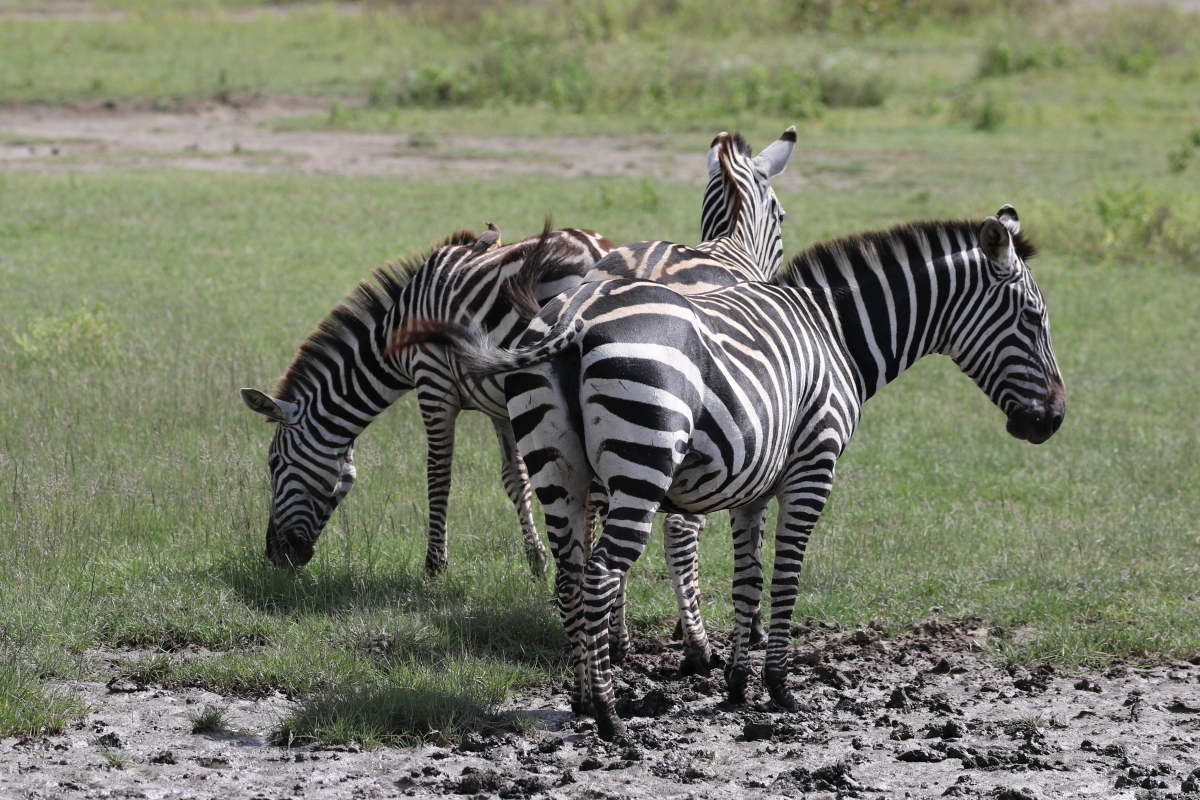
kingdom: Animalia
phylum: Chordata
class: Mammalia
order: Perissodactyla
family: Equidae
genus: Equus
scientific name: Equus quagga
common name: Plains zebra
